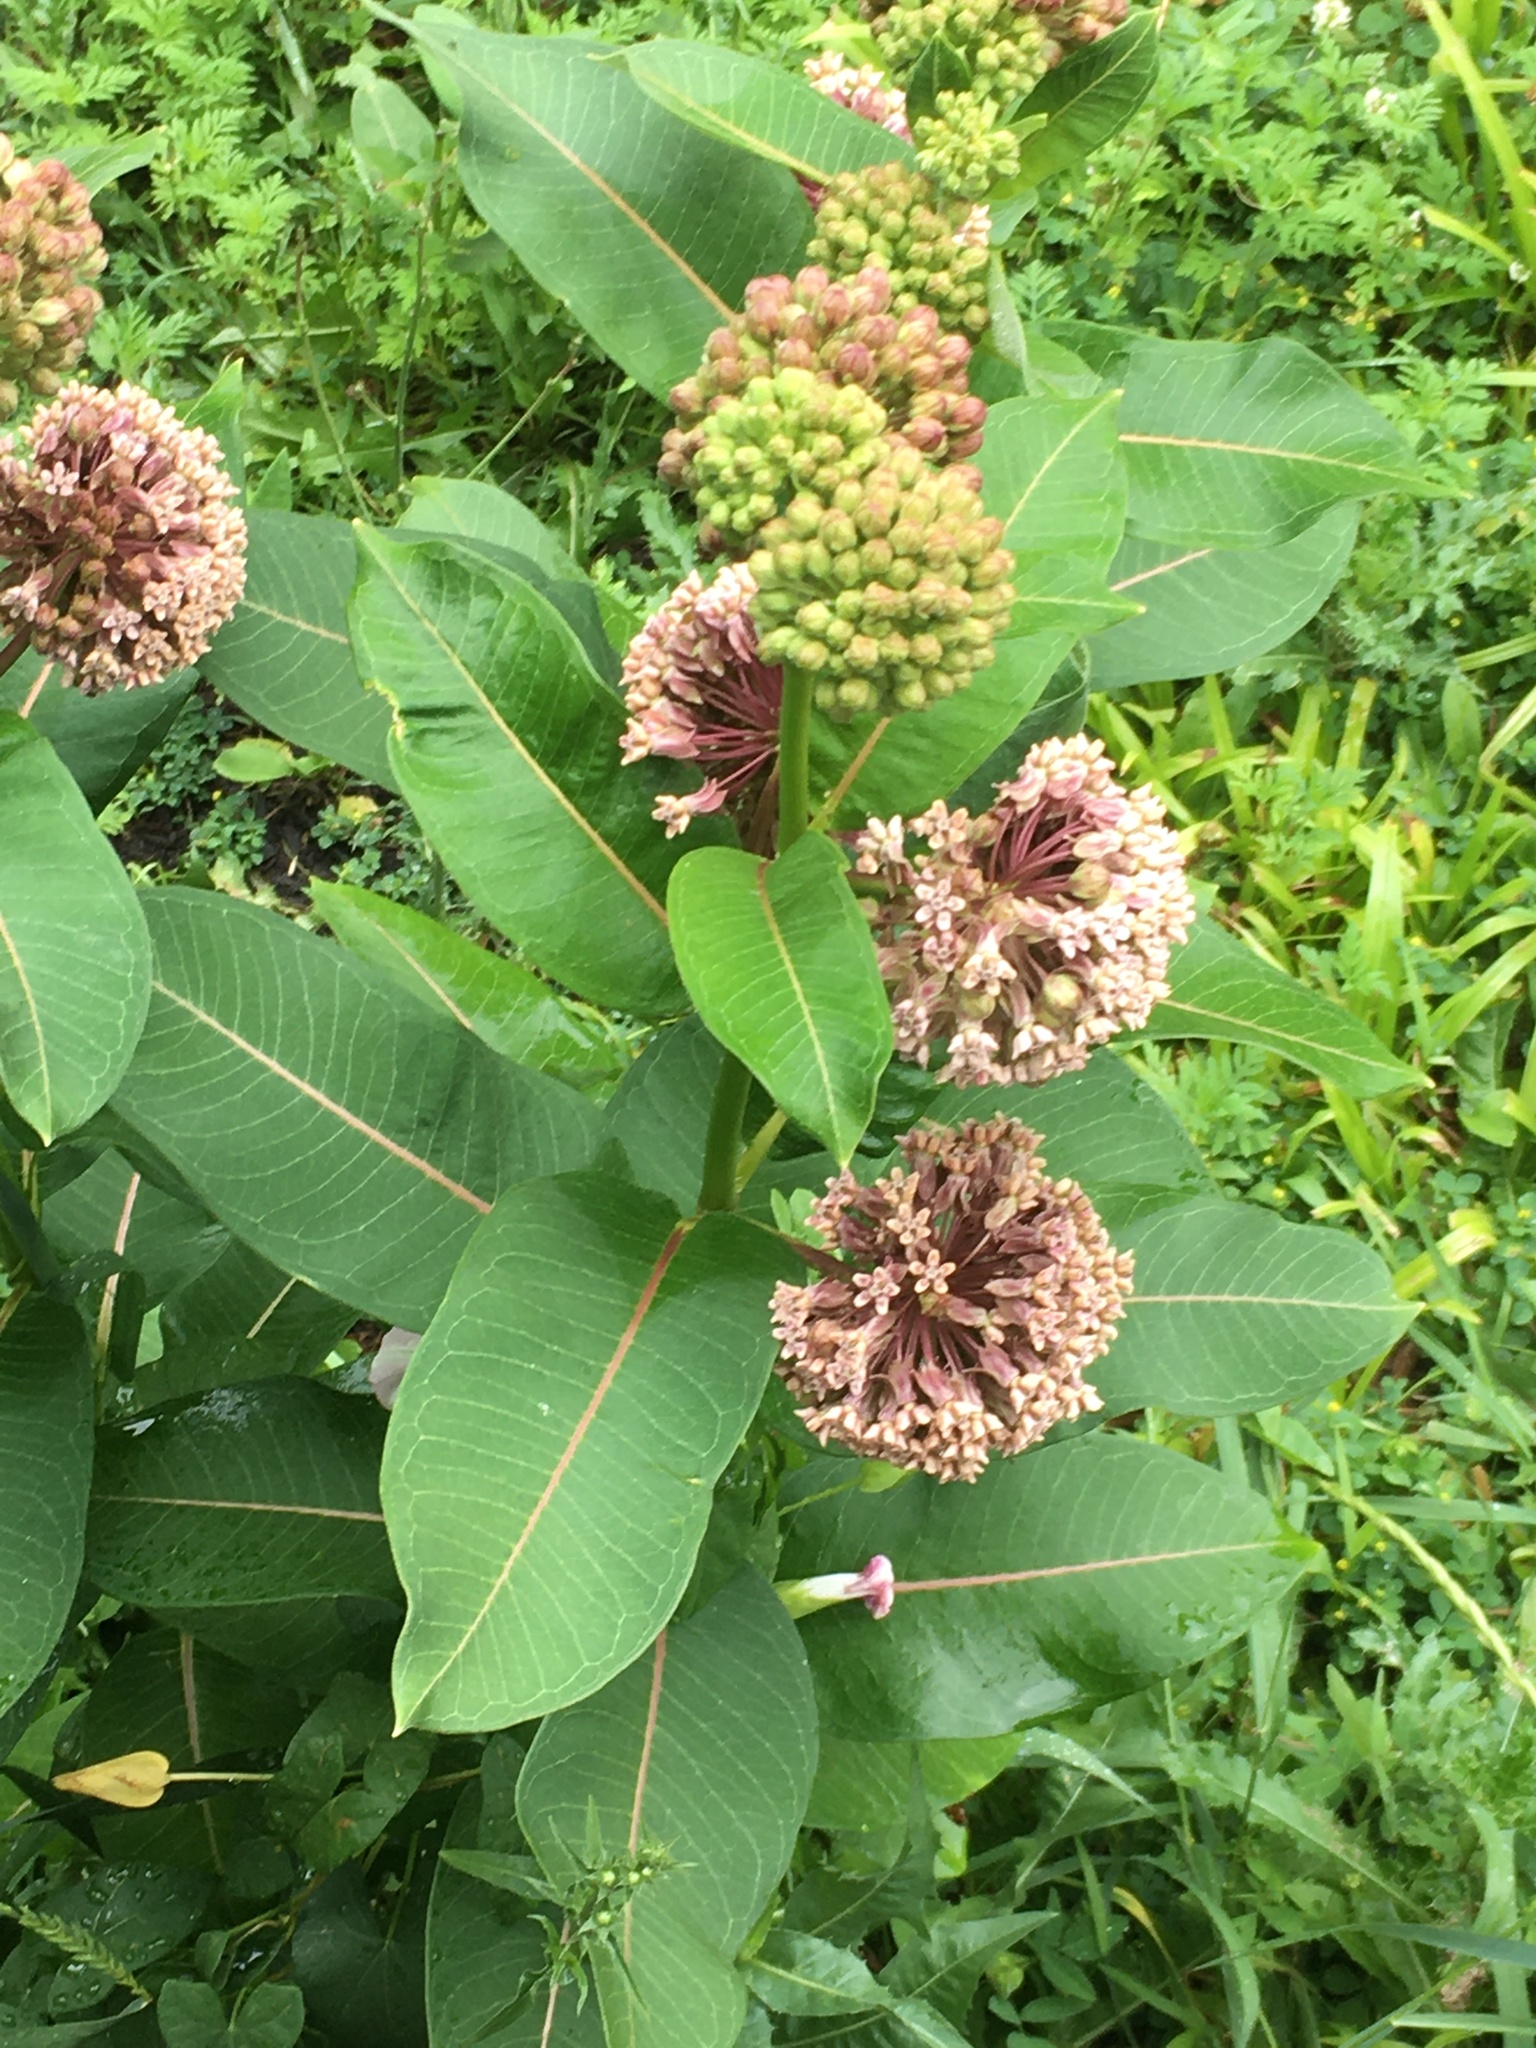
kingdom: Plantae
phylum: Tracheophyta
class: Magnoliopsida
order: Gentianales
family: Apocynaceae
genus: Asclepias
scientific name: Asclepias syriaca
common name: Common milkweed
